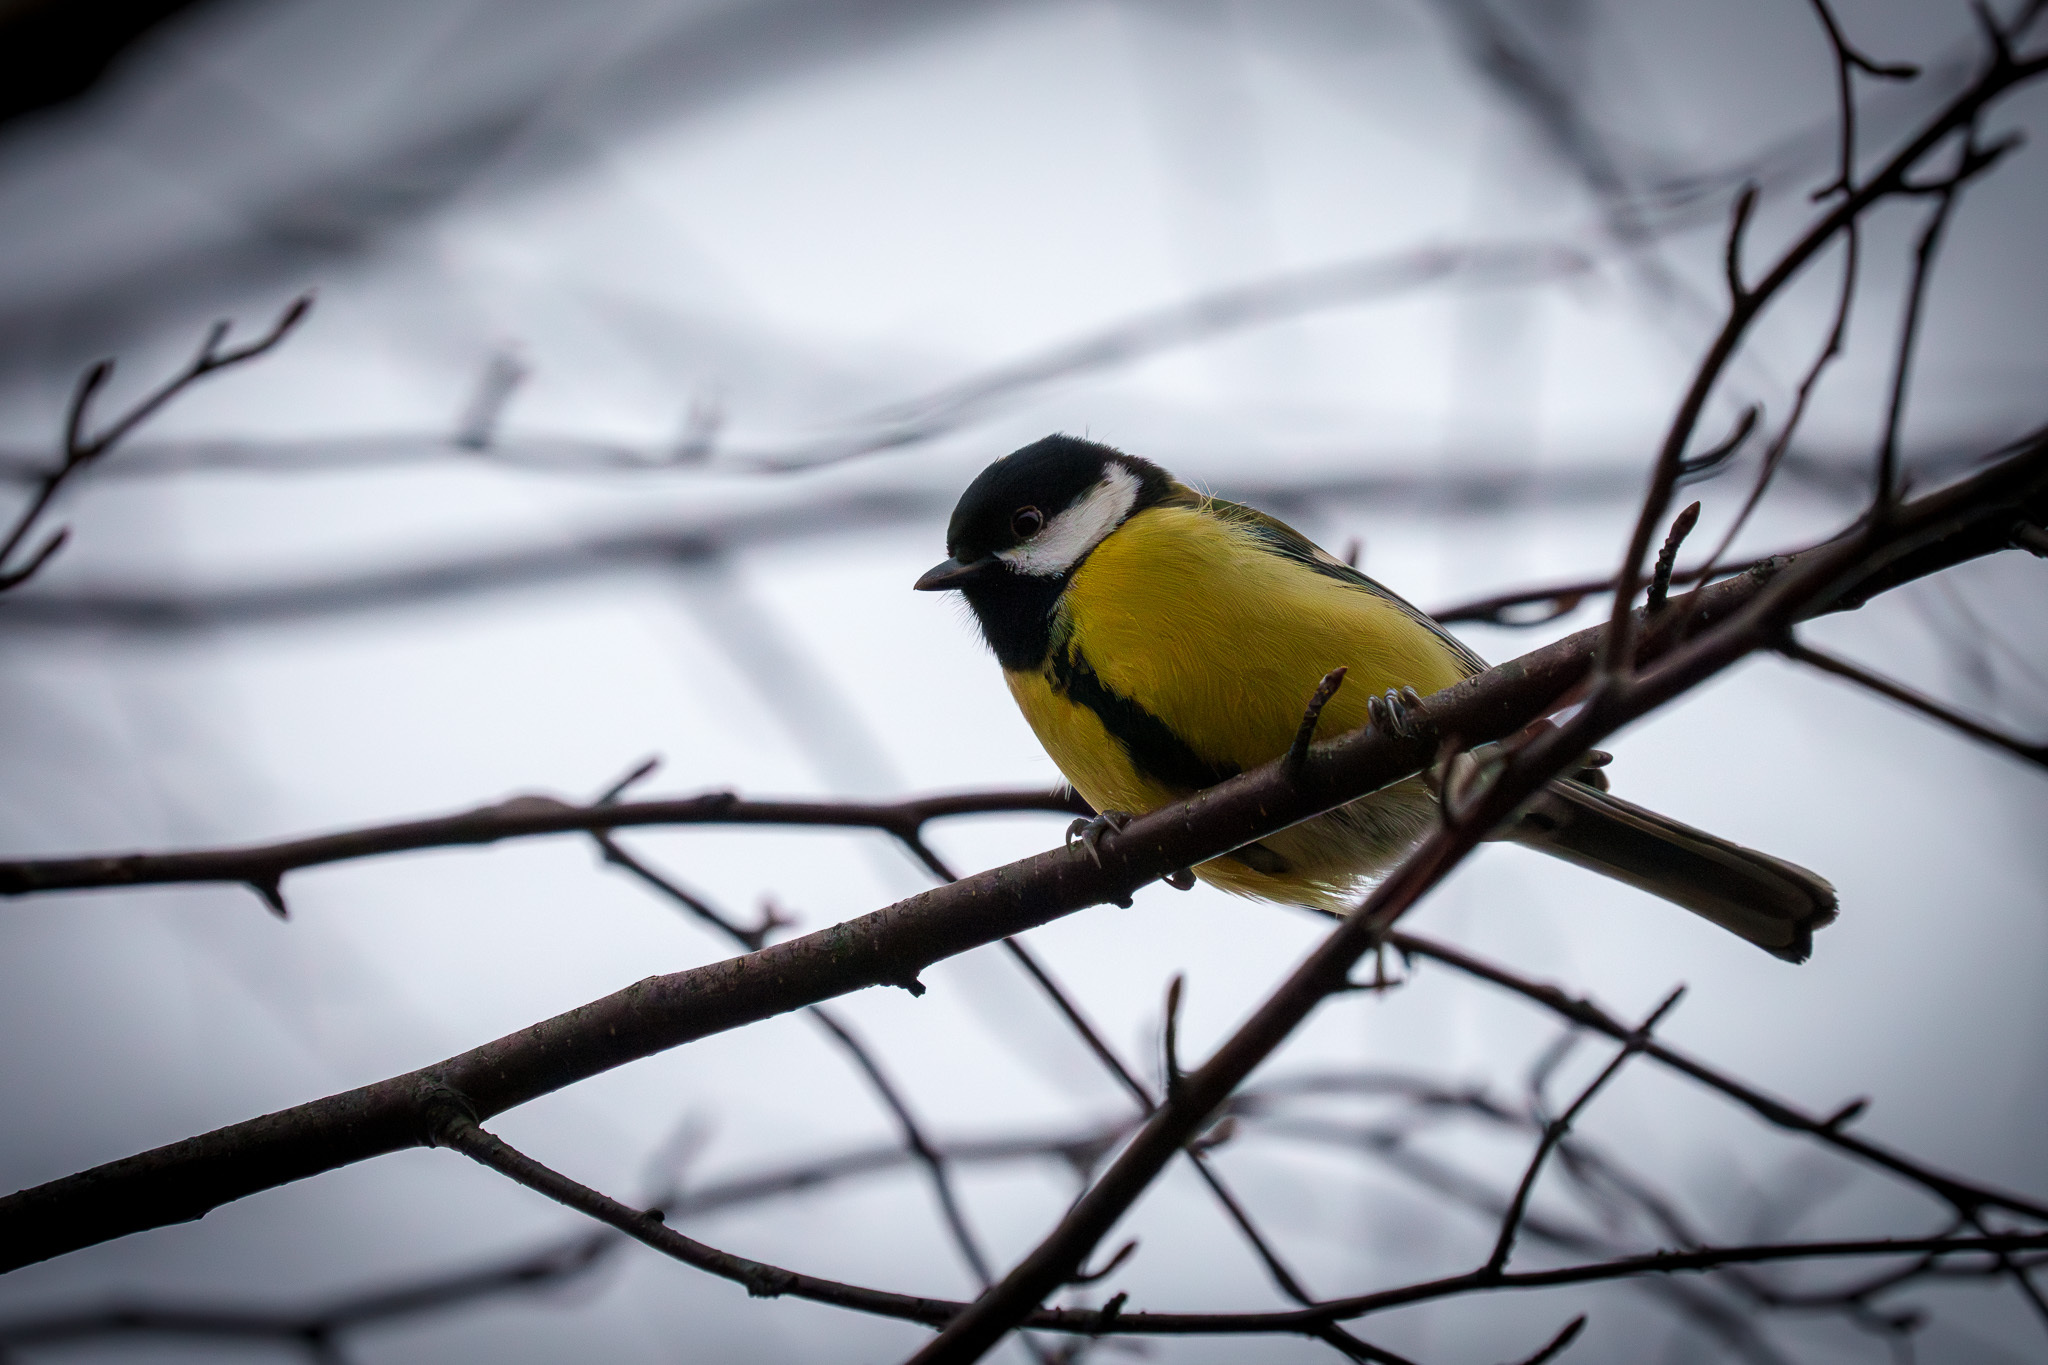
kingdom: Animalia
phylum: Chordata
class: Aves
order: Passeriformes
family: Paridae
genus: Parus
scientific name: Parus major
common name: Great tit
